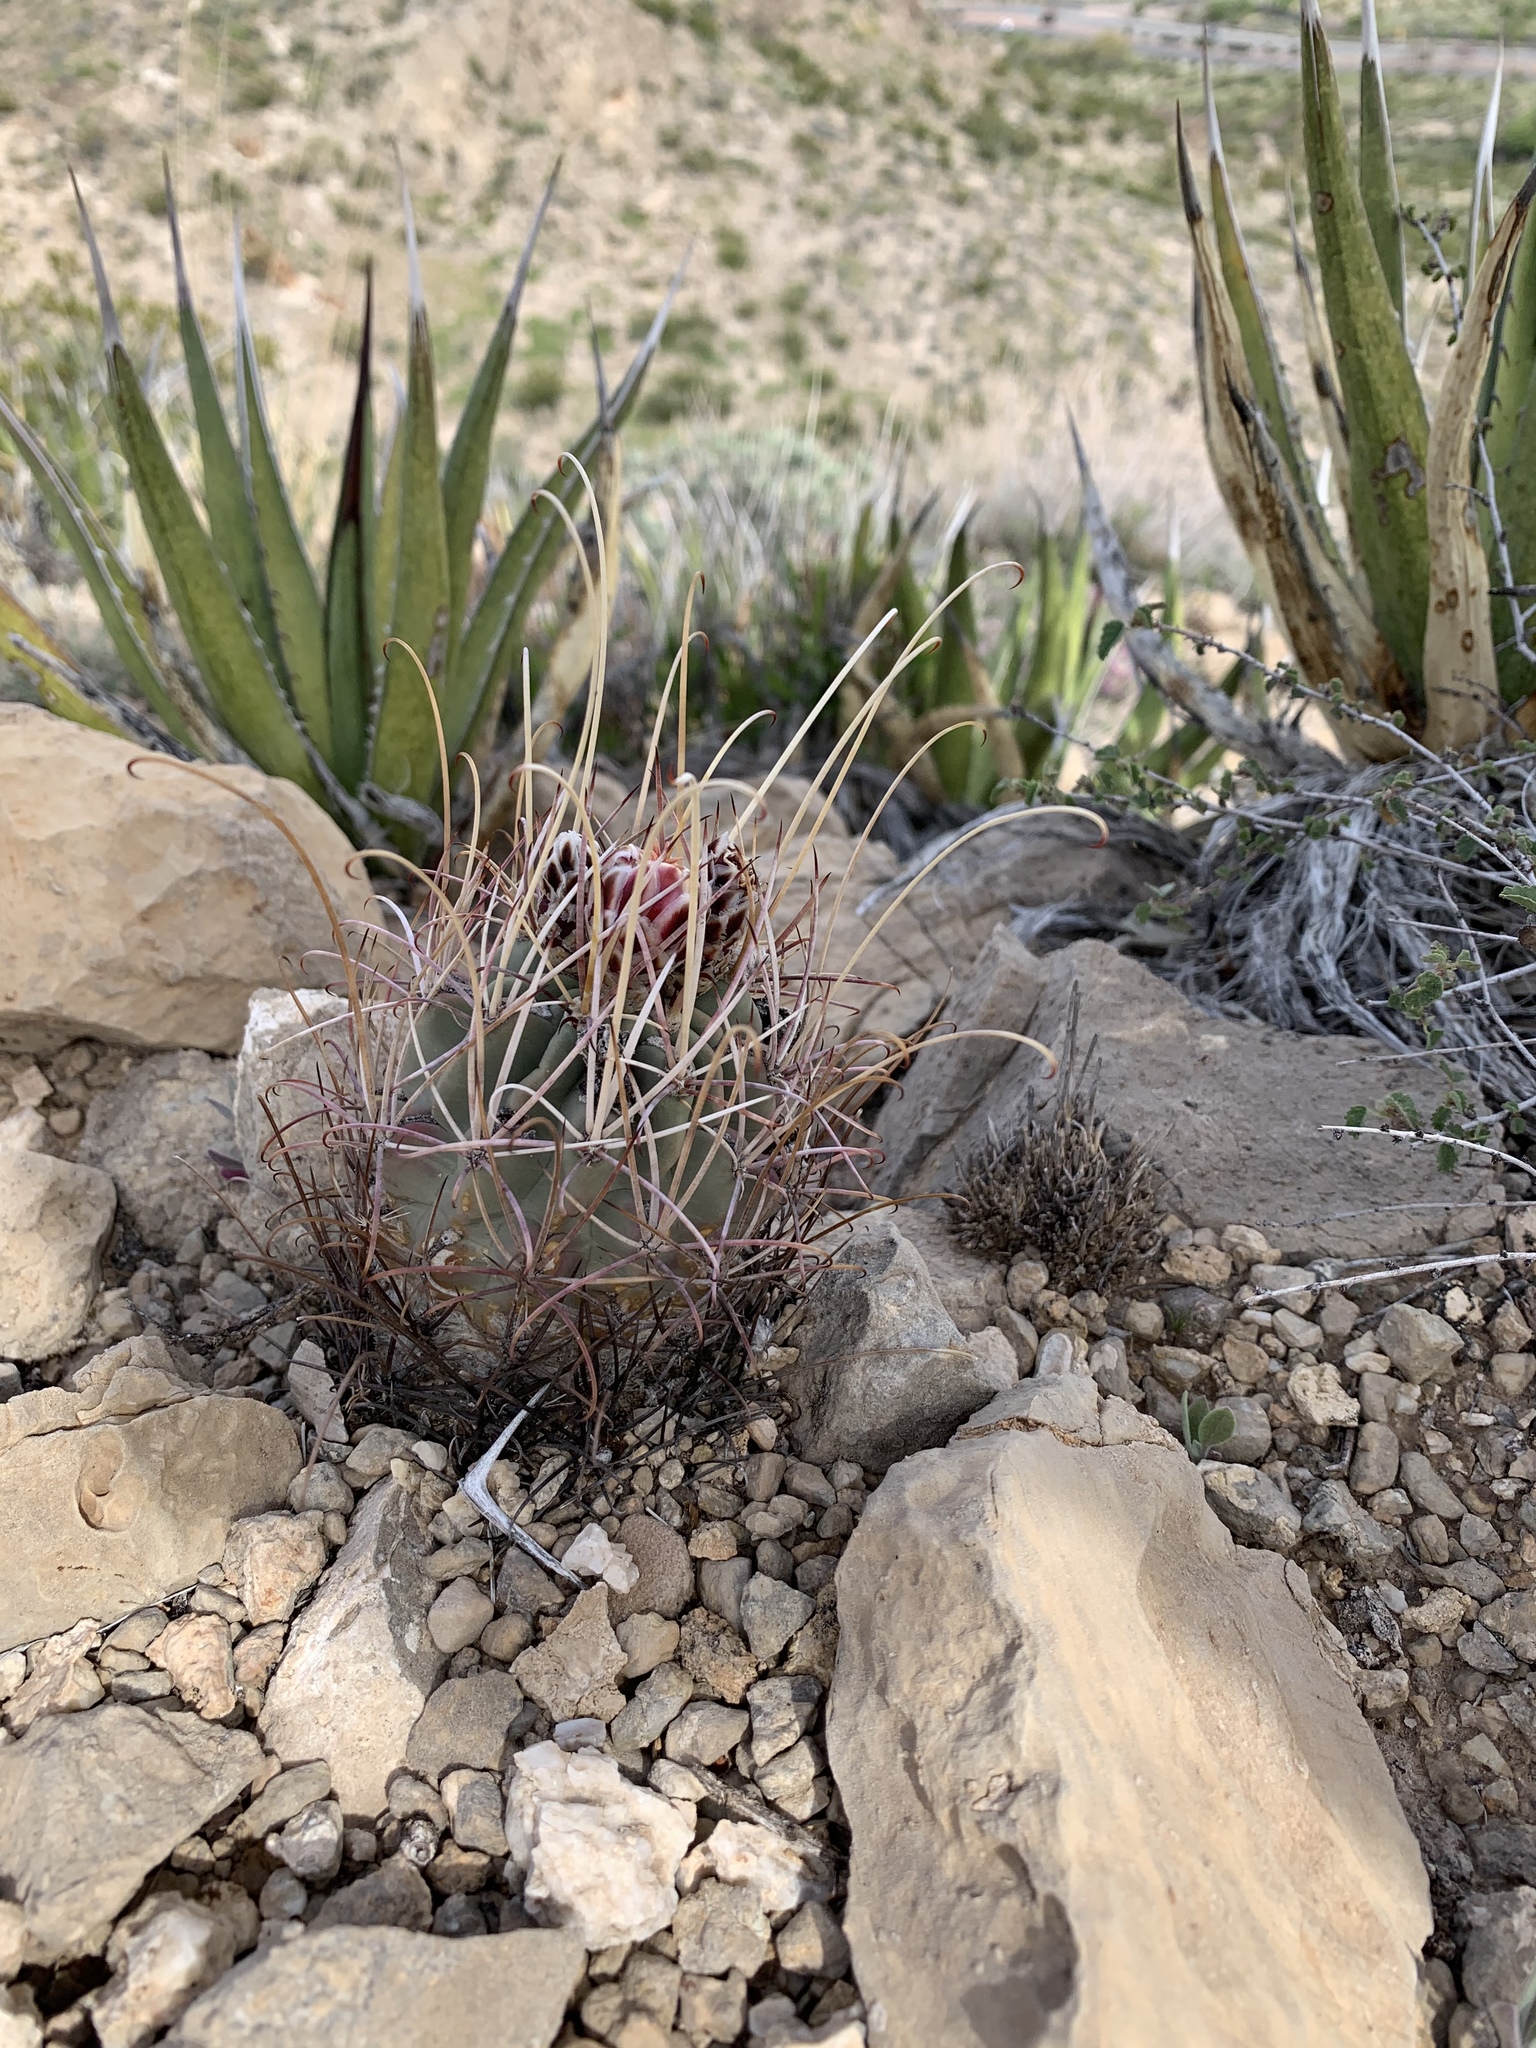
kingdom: Plantae
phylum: Tracheophyta
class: Magnoliopsida
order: Caryophyllales
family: Cactaceae
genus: Ferocactus
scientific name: Ferocactus uncinatus
